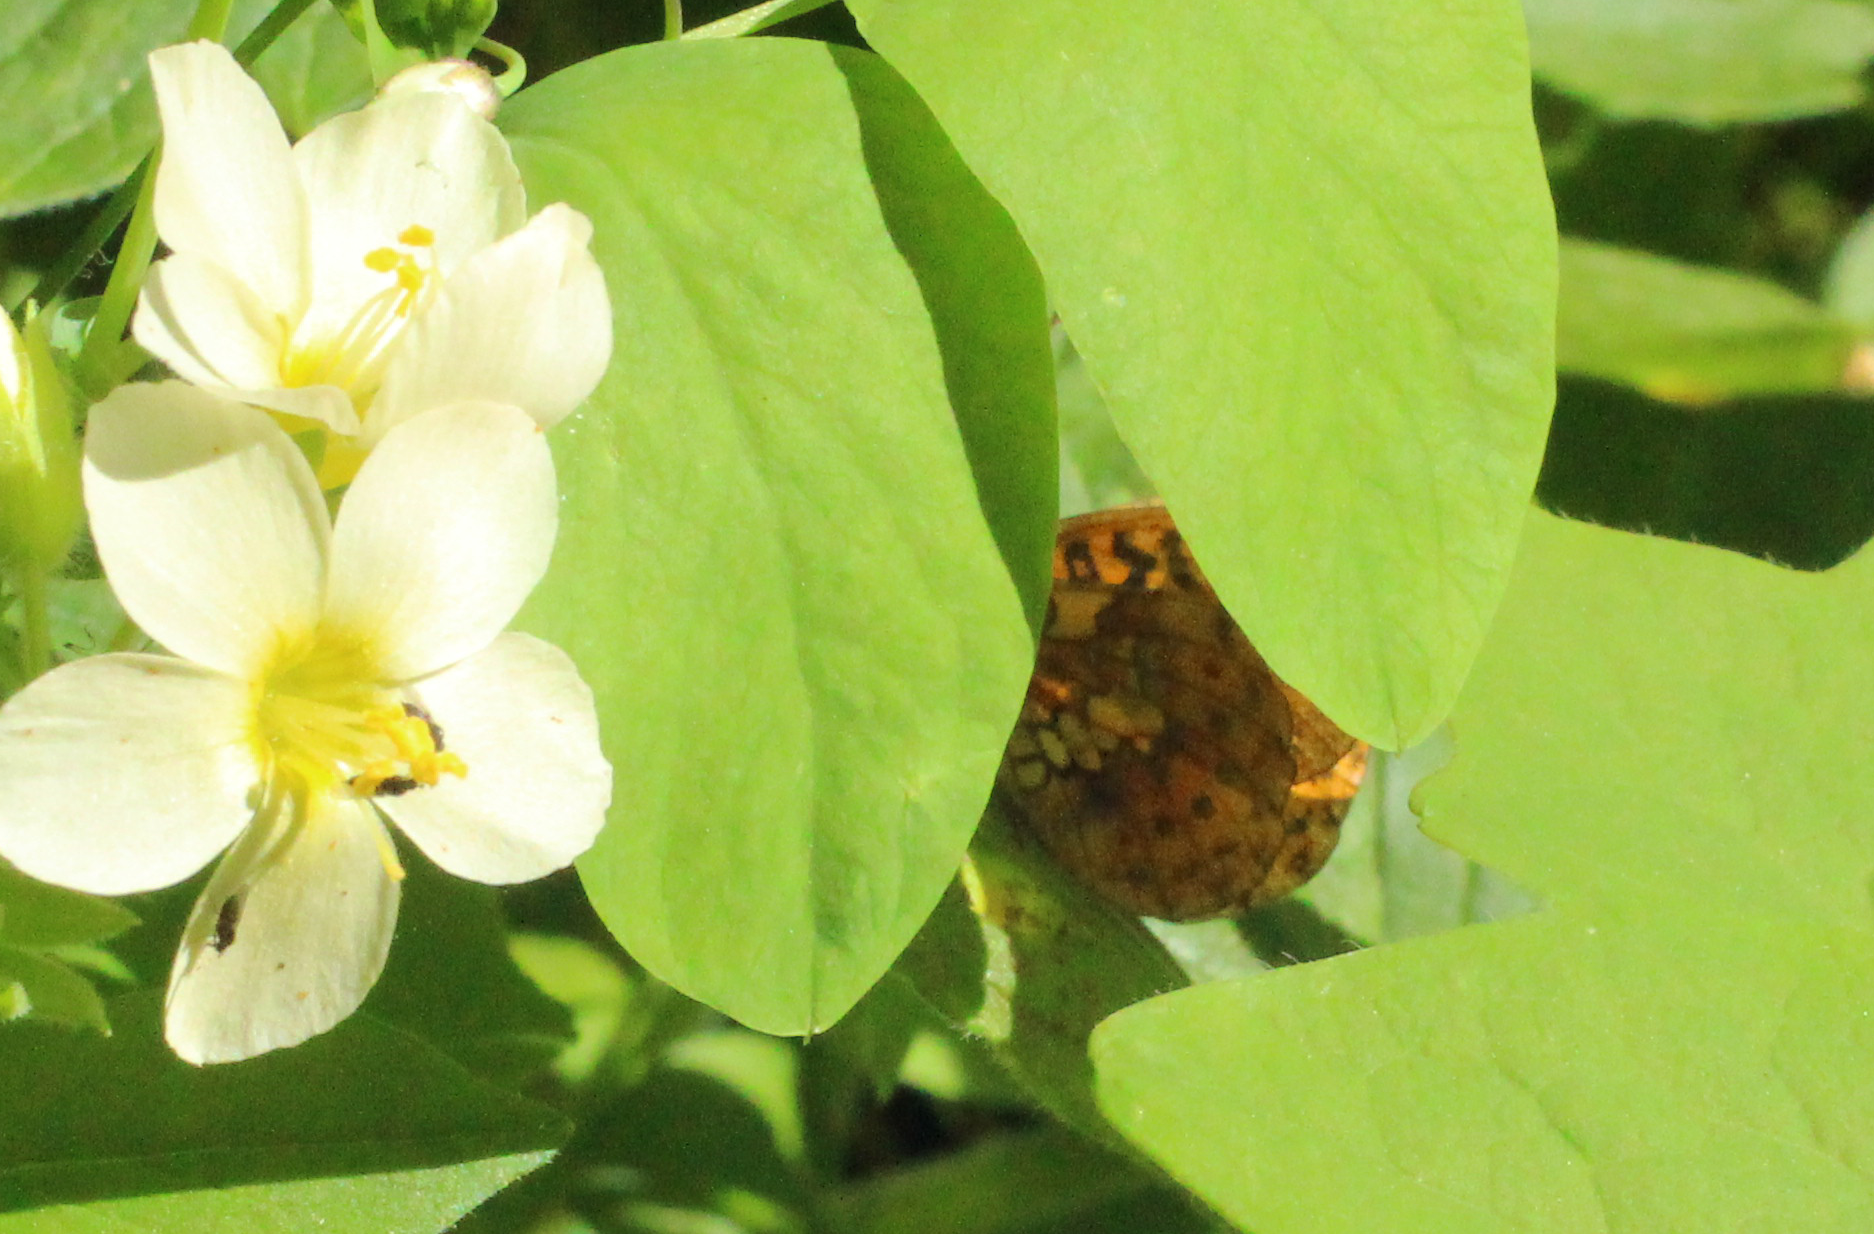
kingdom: Animalia
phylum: Arthropoda
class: Insecta
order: Lepidoptera
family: Nymphalidae
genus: Boloria
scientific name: Boloria epithore
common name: Pacific fritillary
